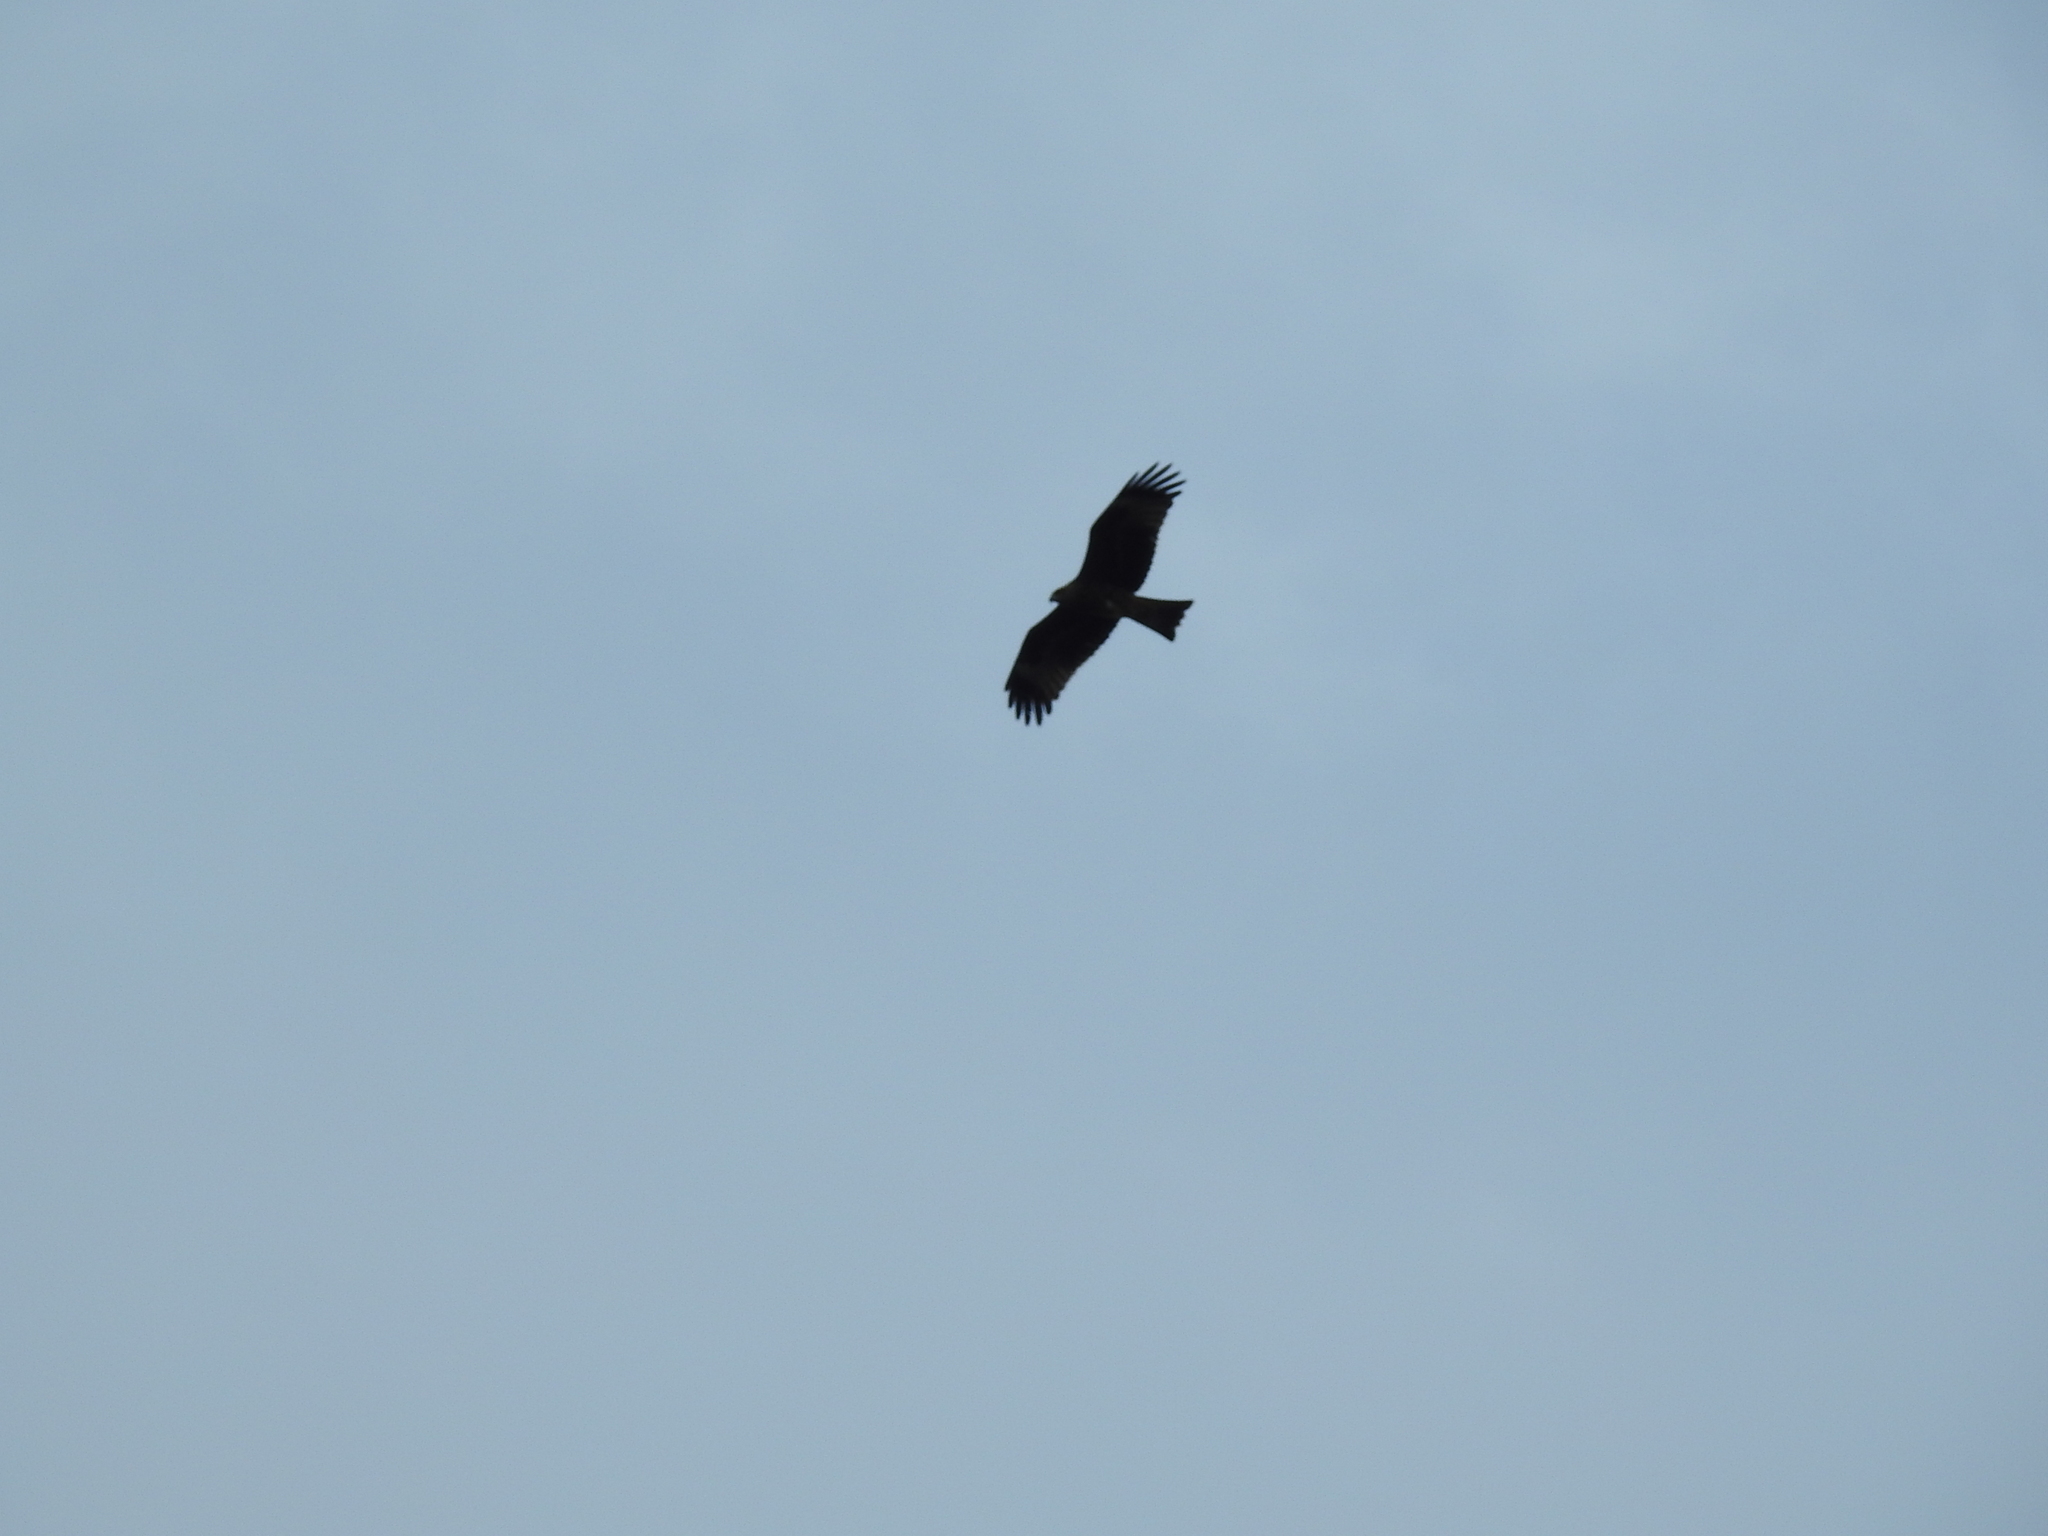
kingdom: Animalia
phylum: Chordata
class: Aves
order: Accipitriformes
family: Accipitridae
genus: Milvus
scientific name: Milvus migrans
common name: Black kite
